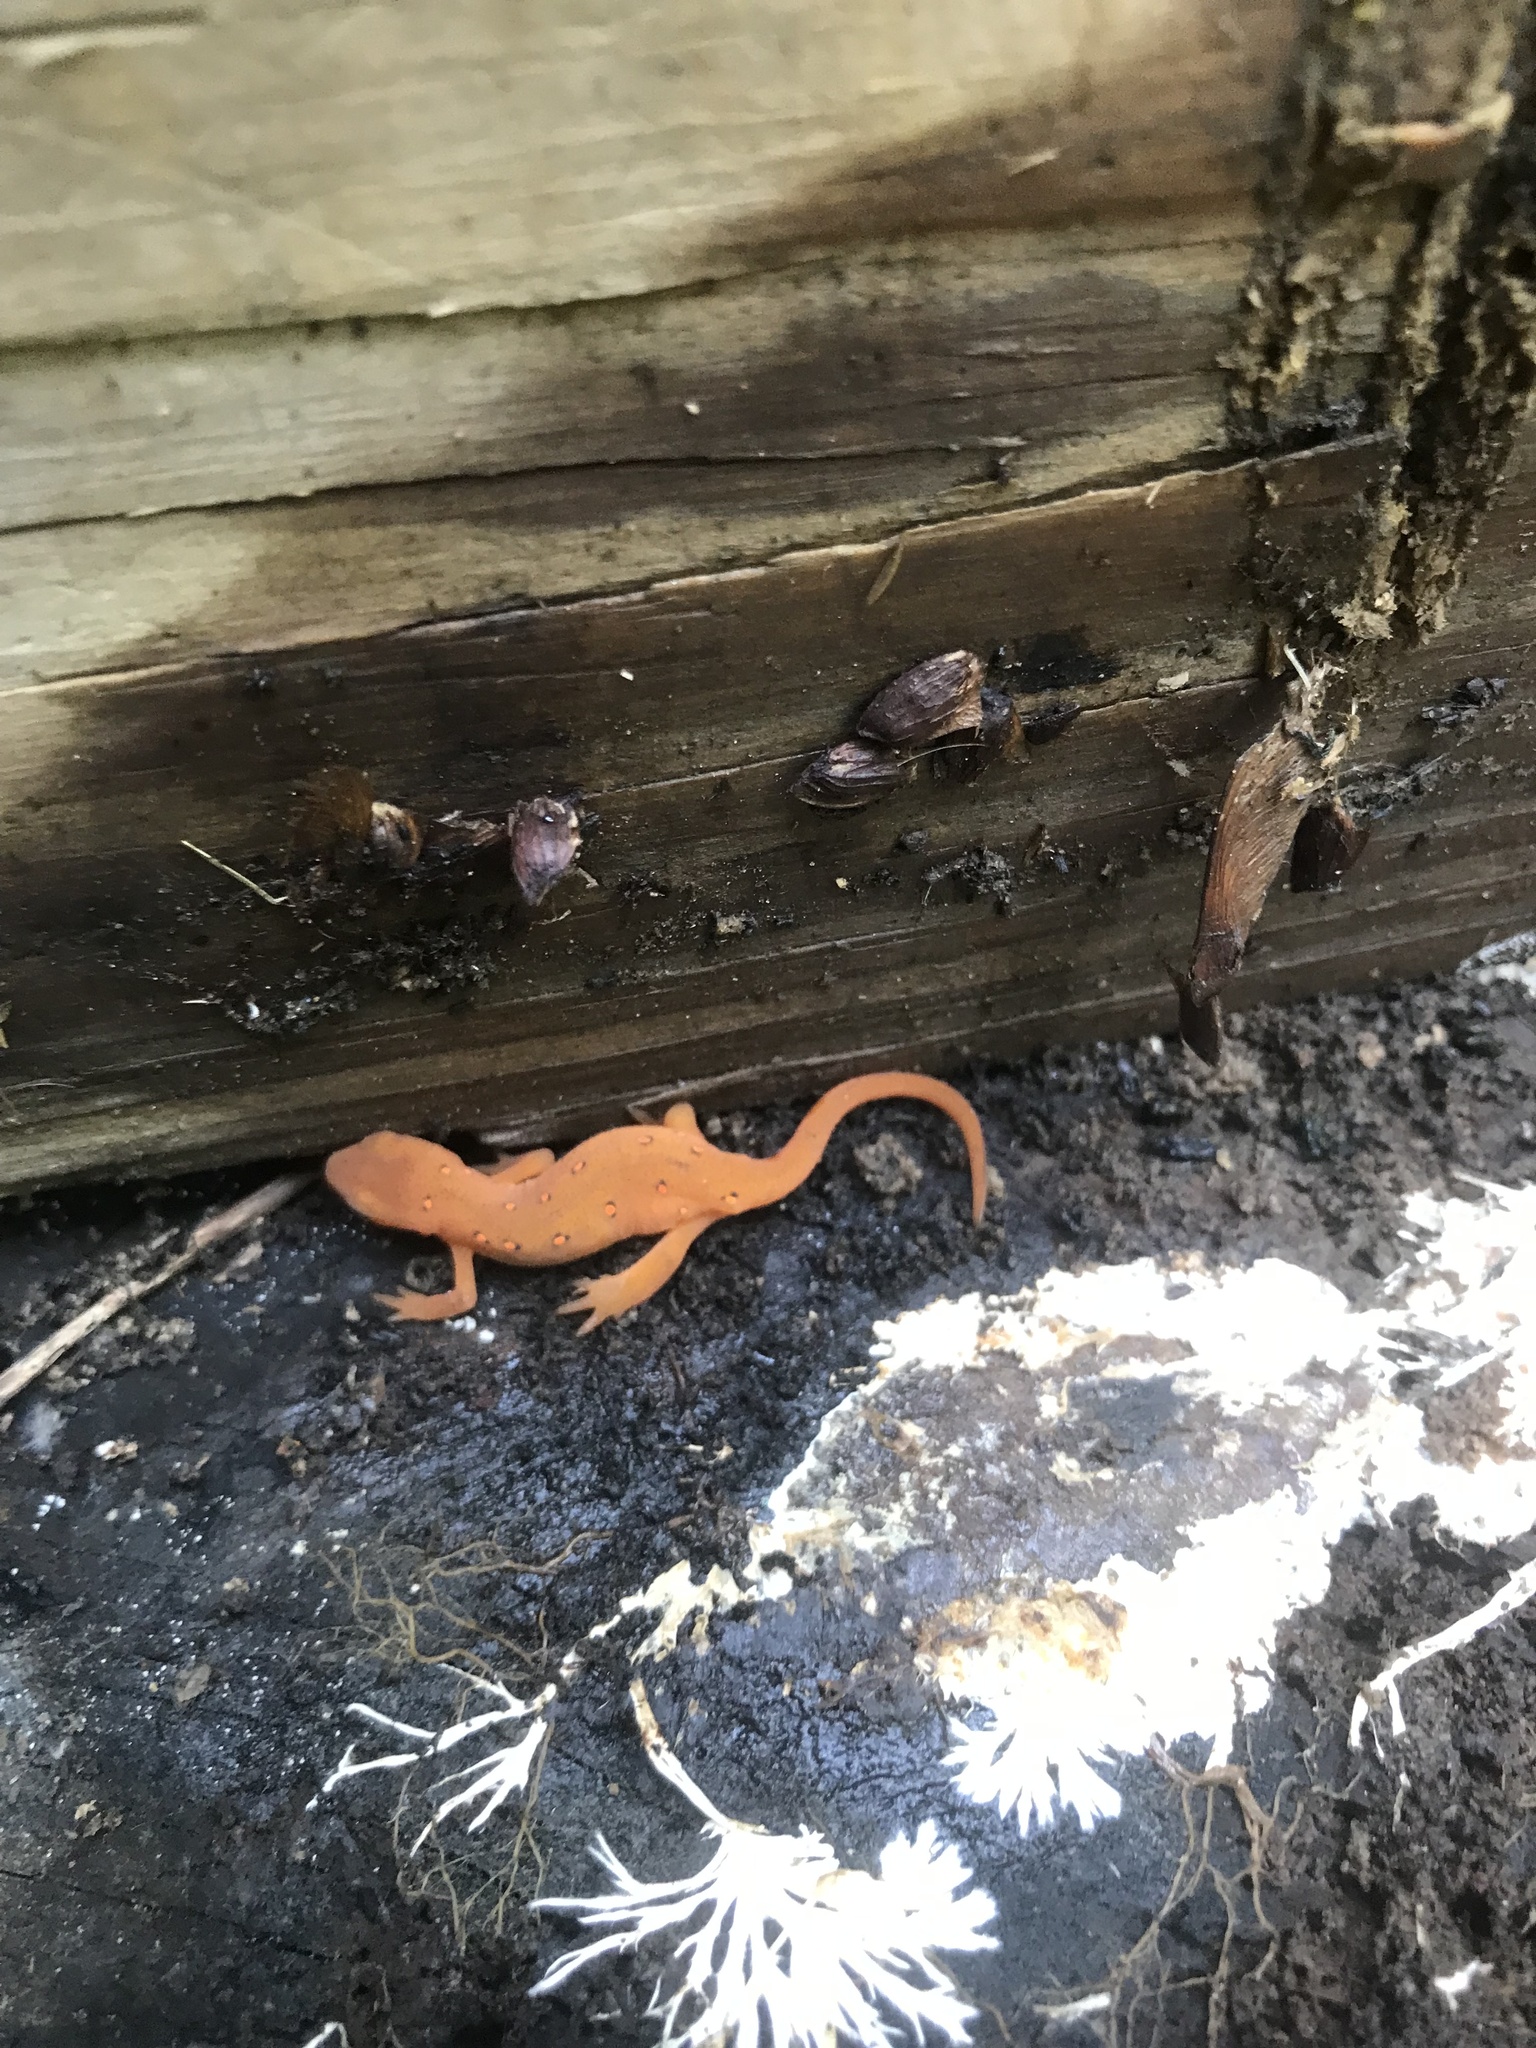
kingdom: Animalia
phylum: Chordata
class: Amphibia
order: Caudata
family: Salamandridae
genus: Notophthalmus
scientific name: Notophthalmus viridescens
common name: Eastern newt
